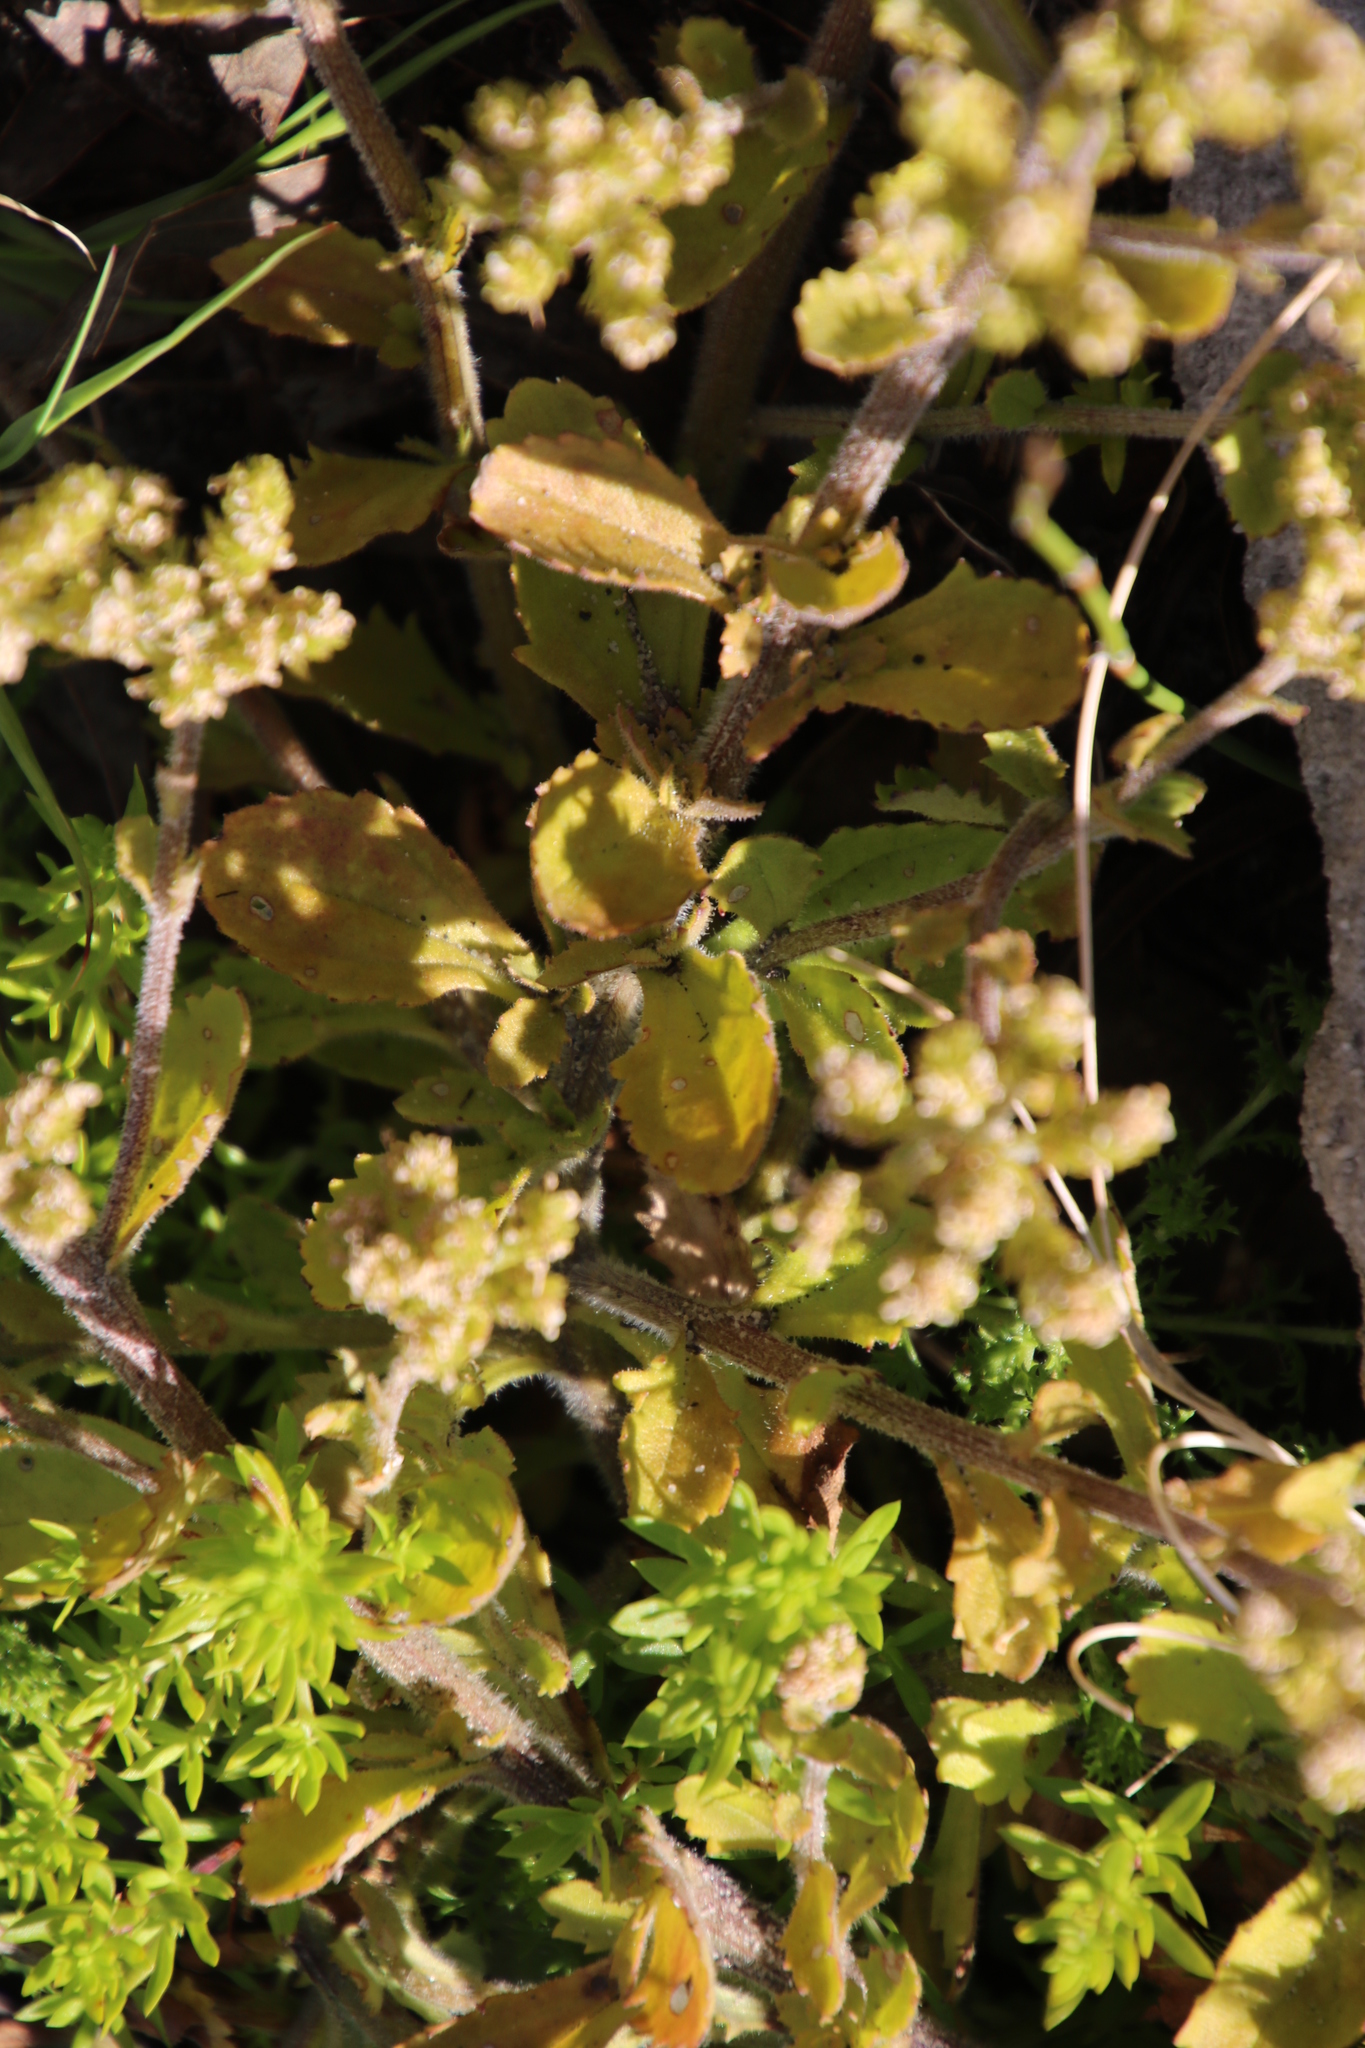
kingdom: Plantae
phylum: Tracheophyta
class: Magnoliopsida
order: Lamiales
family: Scrophulariaceae
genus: Pseudoselago
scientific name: Pseudoselago peninsulae
